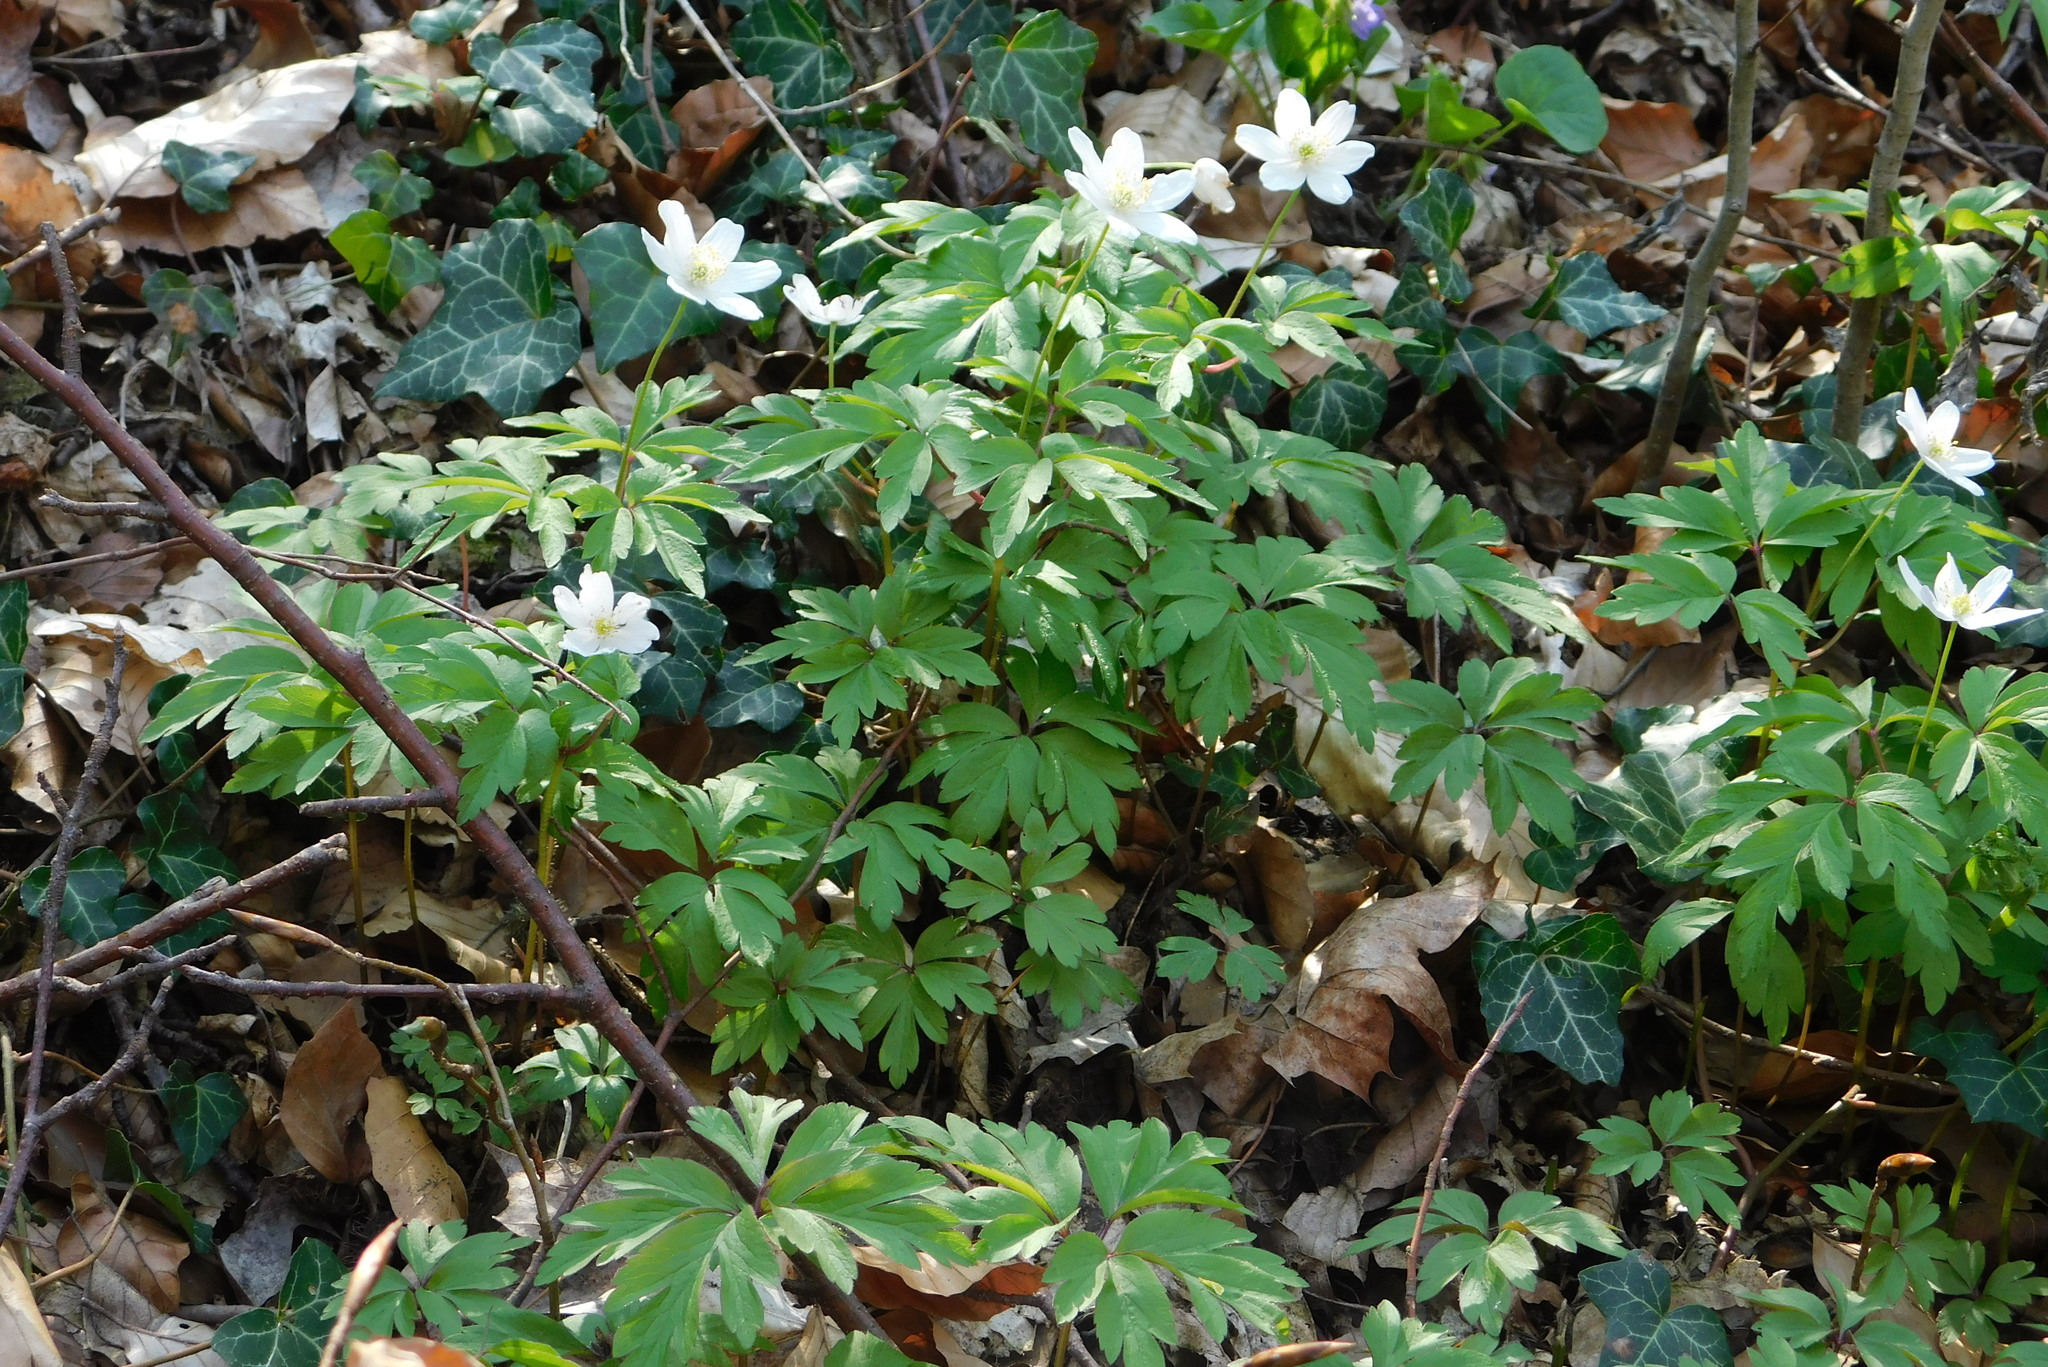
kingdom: Plantae
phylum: Tracheophyta
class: Magnoliopsida
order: Ranunculales
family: Ranunculaceae
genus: Anemone
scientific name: Anemone nemorosa
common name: Wood anemone
